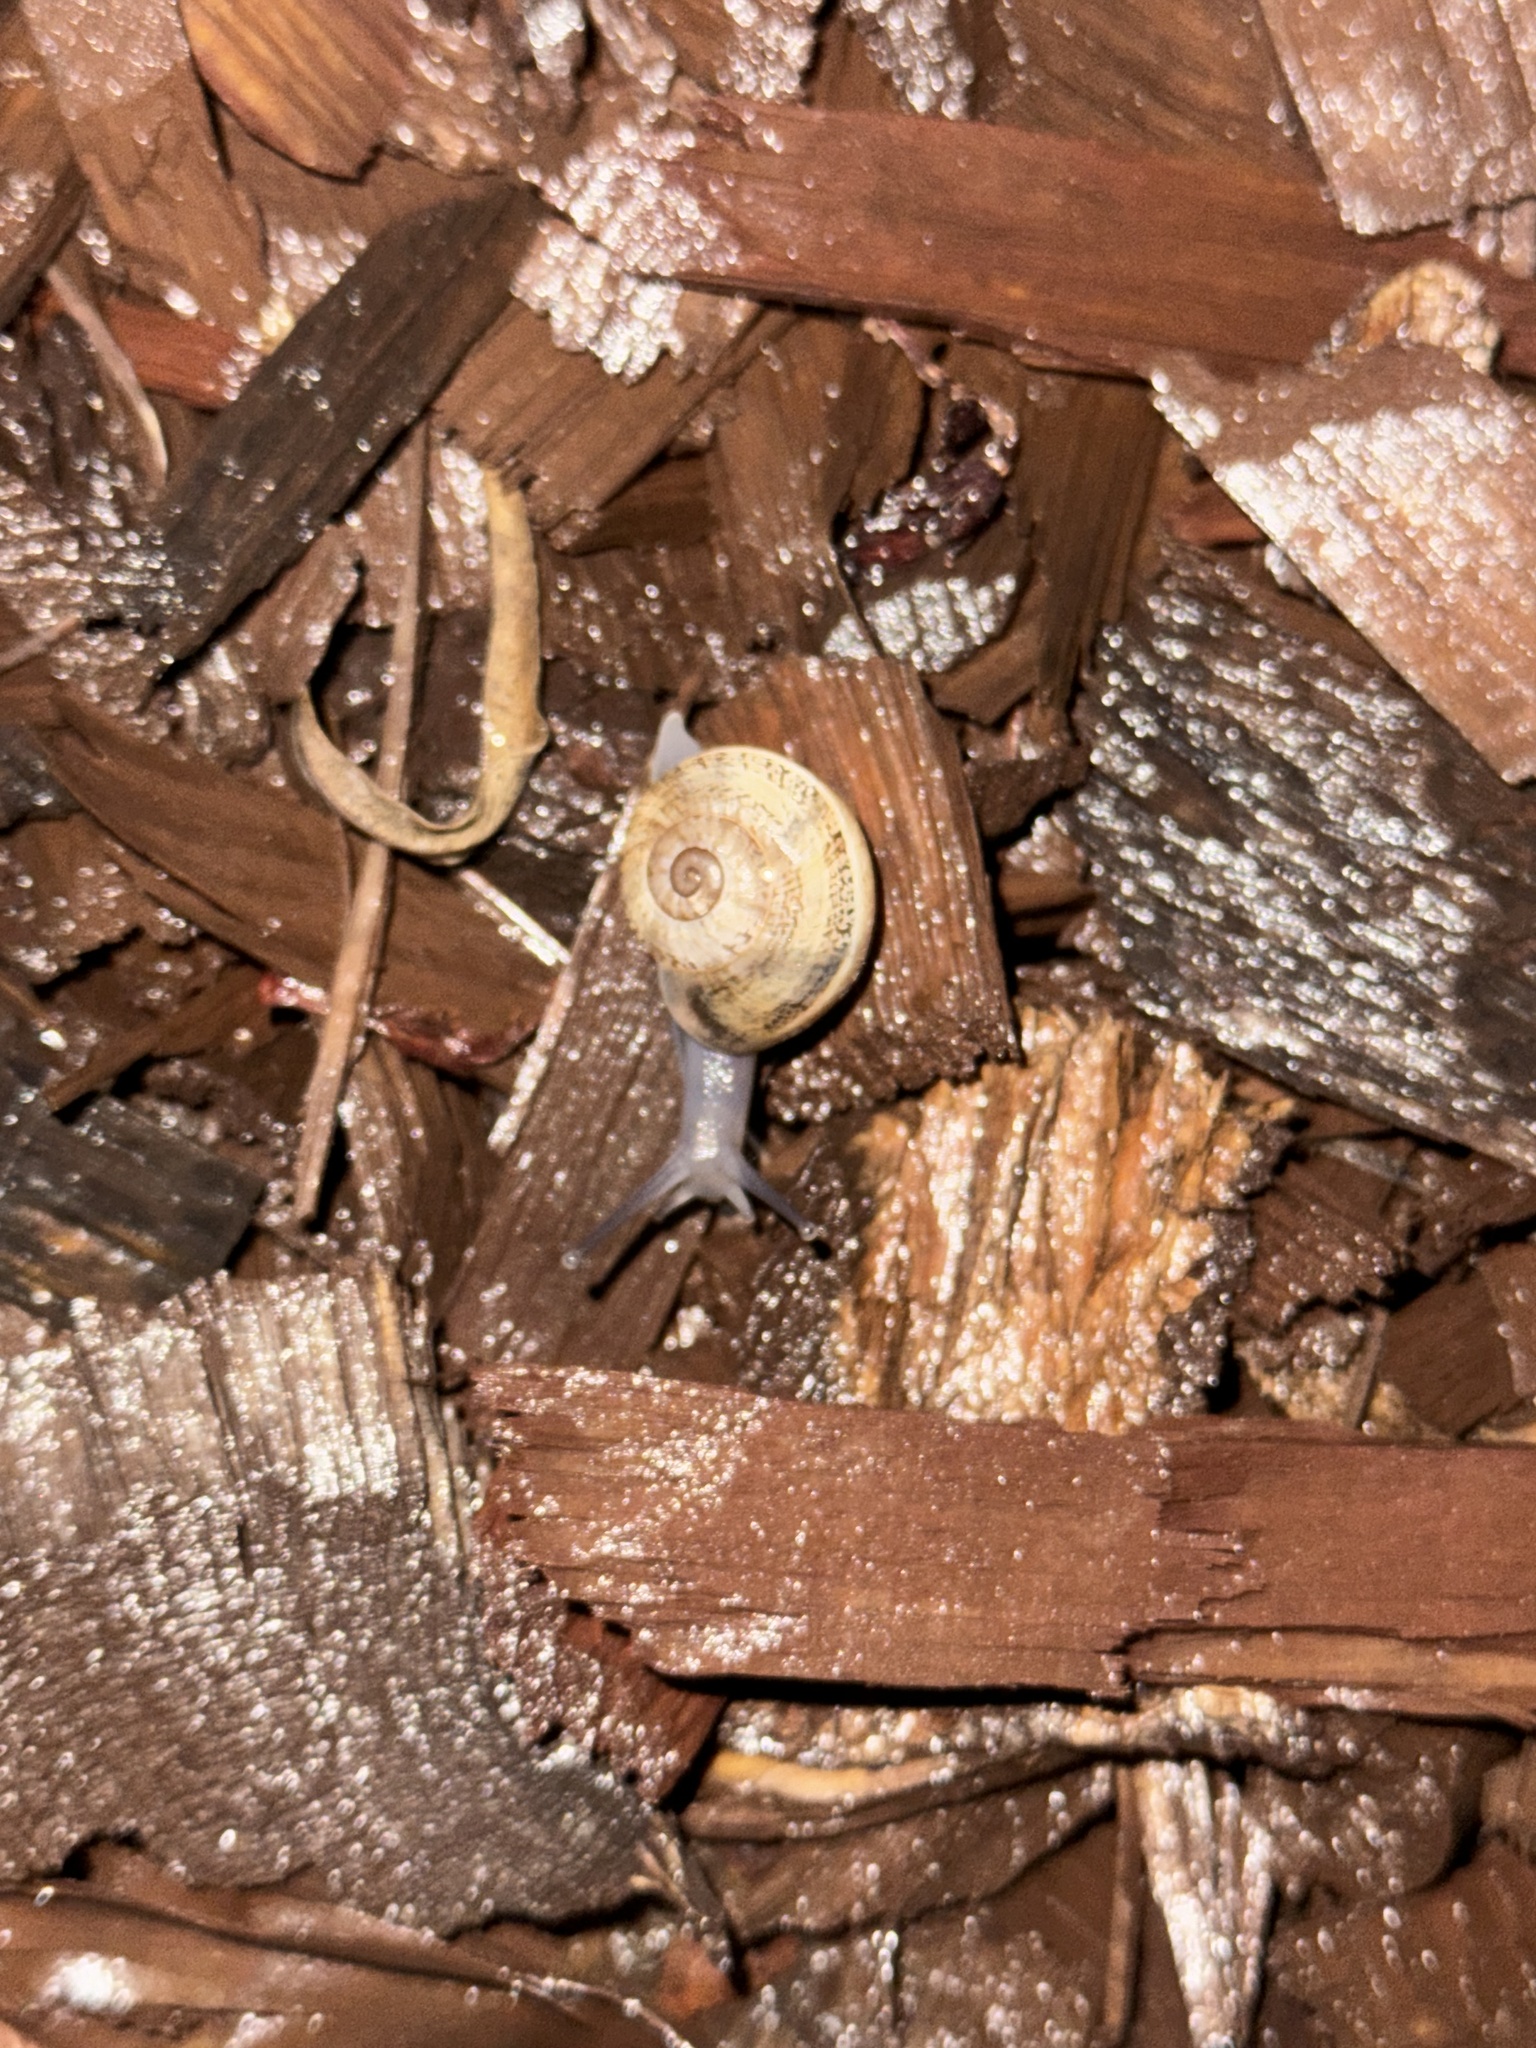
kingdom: Animalia
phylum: Mollusca
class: Gastropoda
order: Stylommatophora
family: Helicidae
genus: Otala
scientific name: Otala lactea
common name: Milk snail
